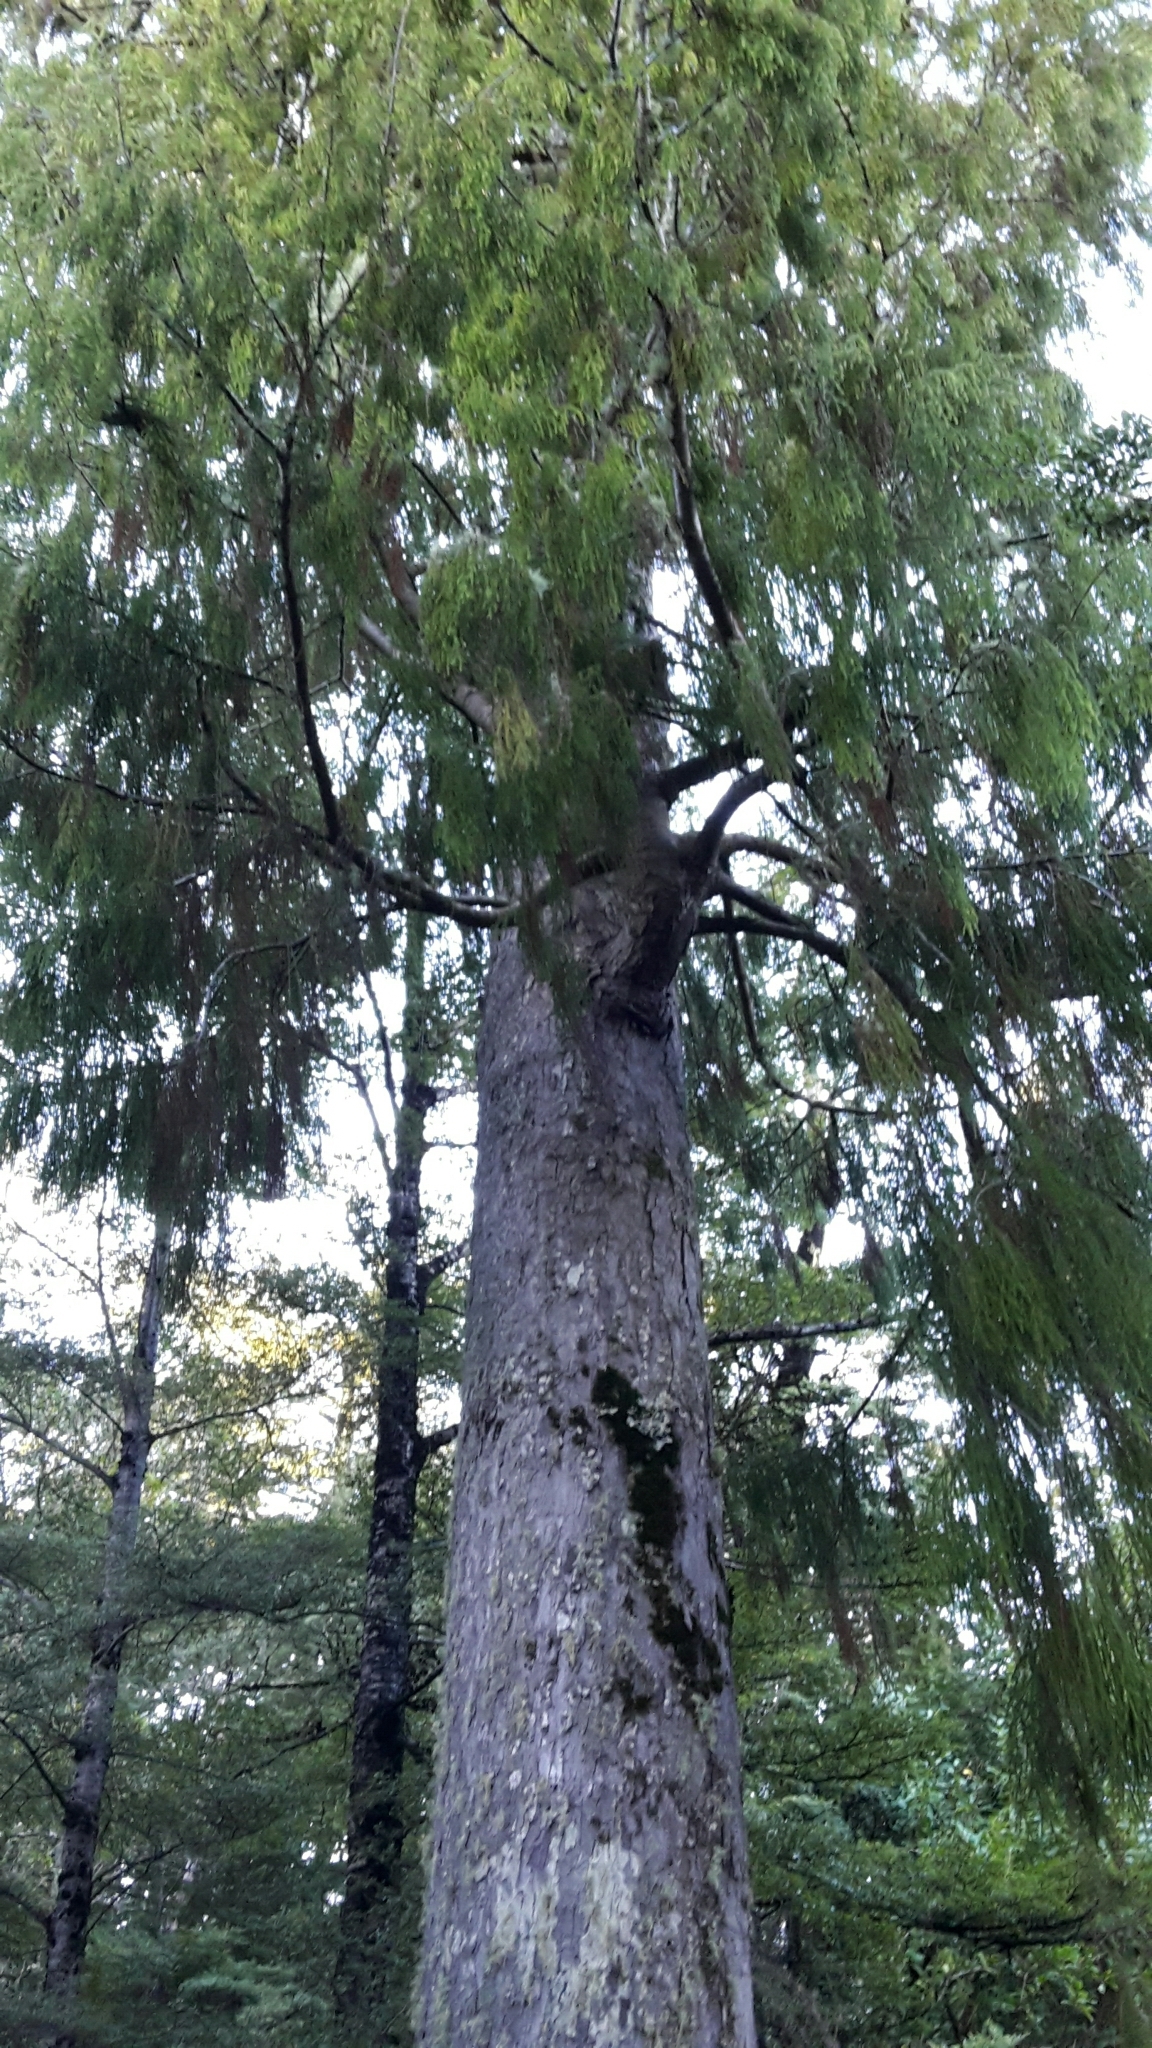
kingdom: Plantae
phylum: Tracheophyta
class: Pinopsida
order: Pinales
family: Podocarpaceae
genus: Dacrydium
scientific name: Dacrydium cupressinum
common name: Red pine
